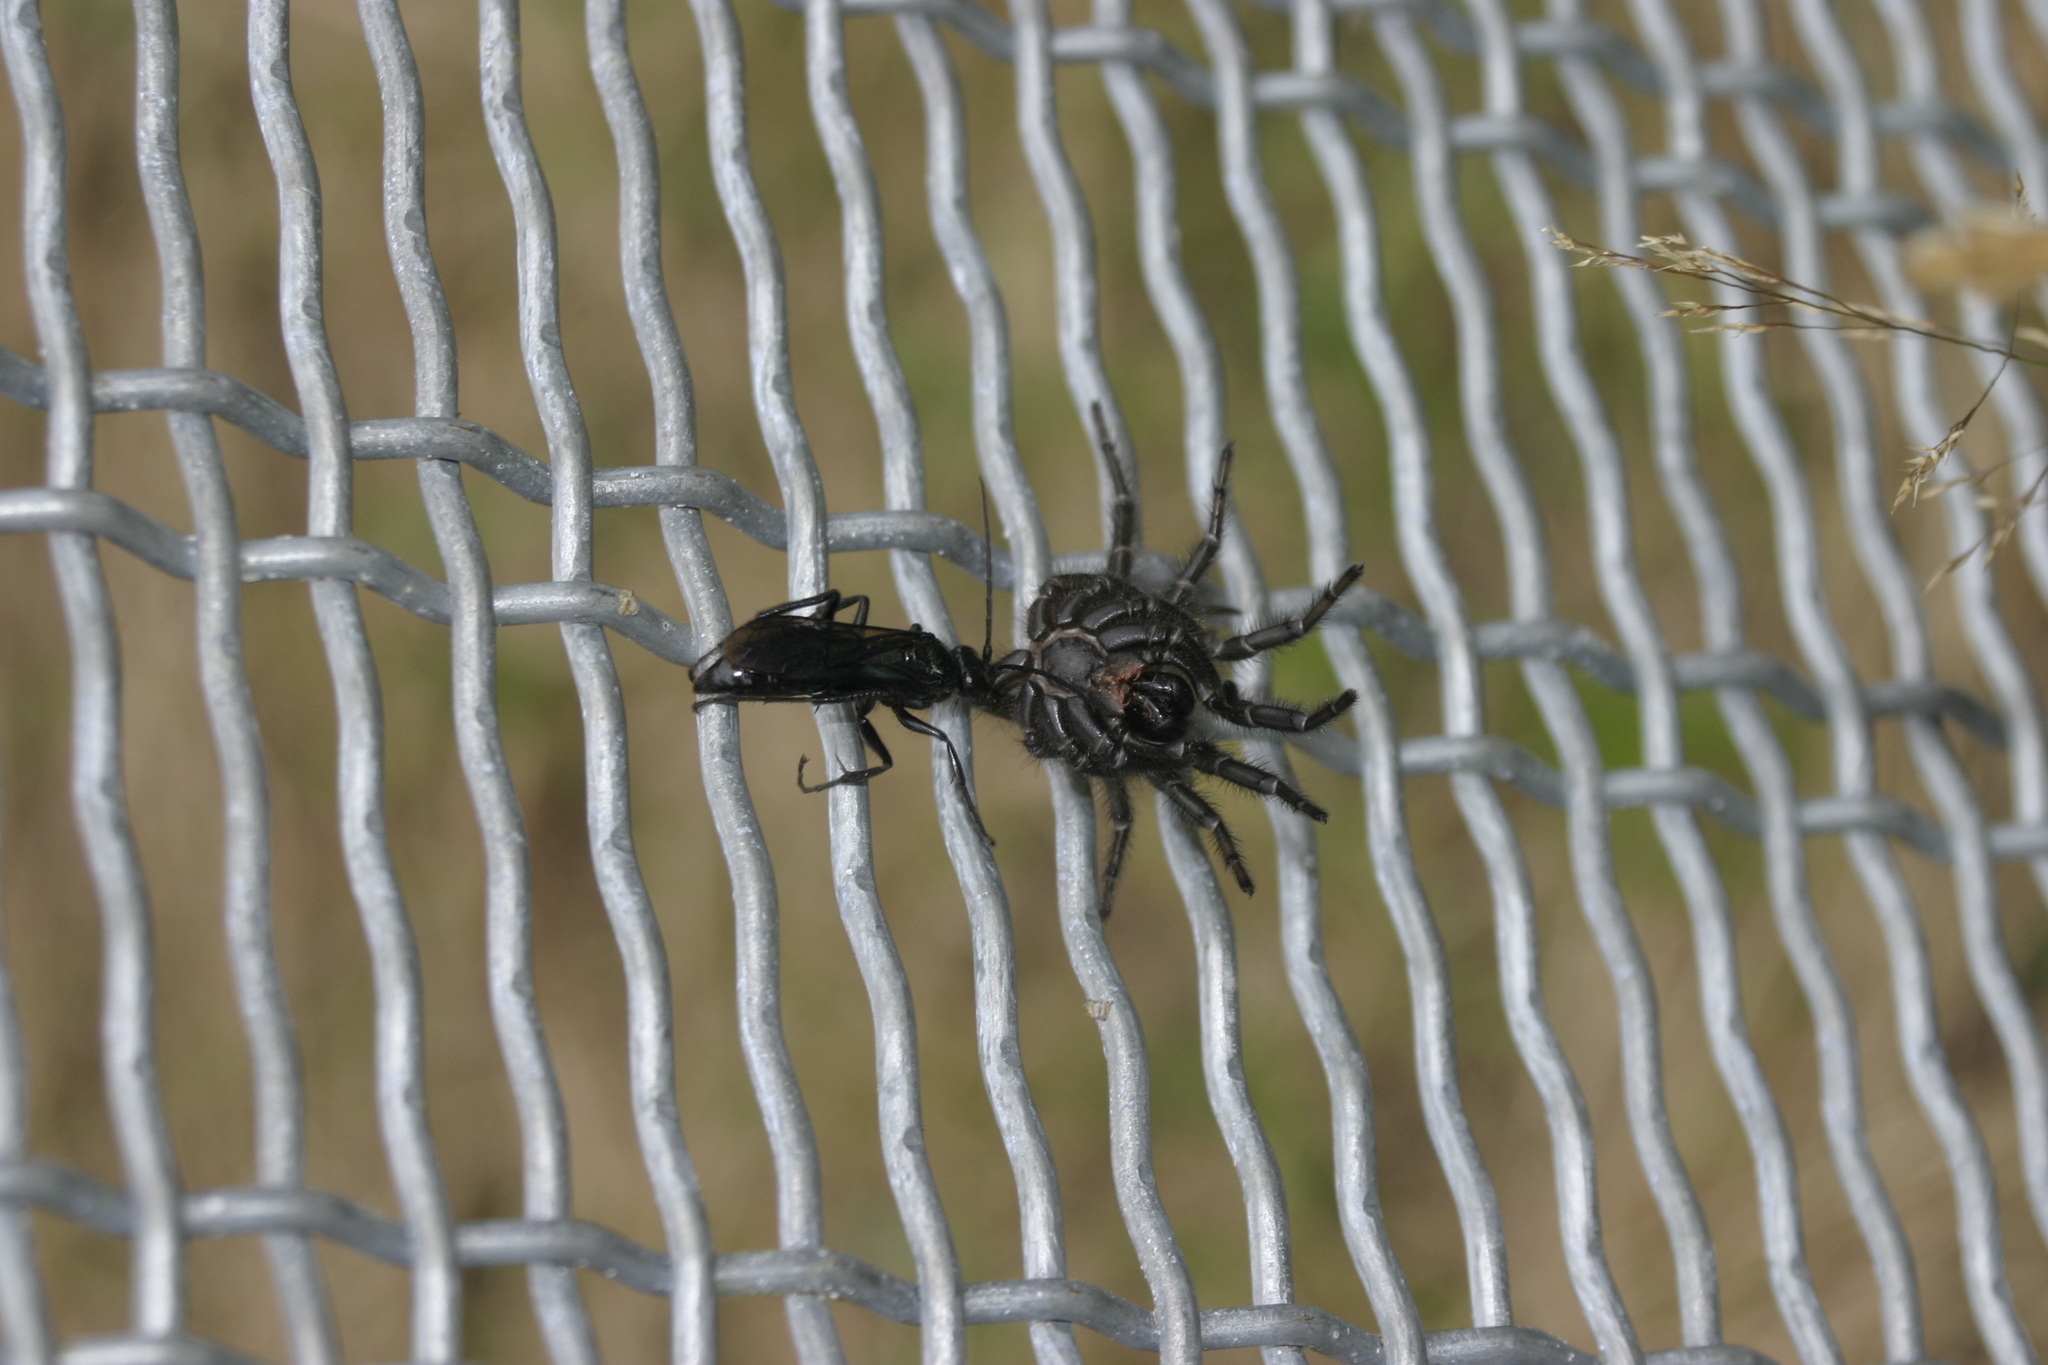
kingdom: Animalia
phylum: Arthropoda
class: Insecta
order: Hymenoptera
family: Pompilidae
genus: Priocnemis
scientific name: Priocnemis monachus
